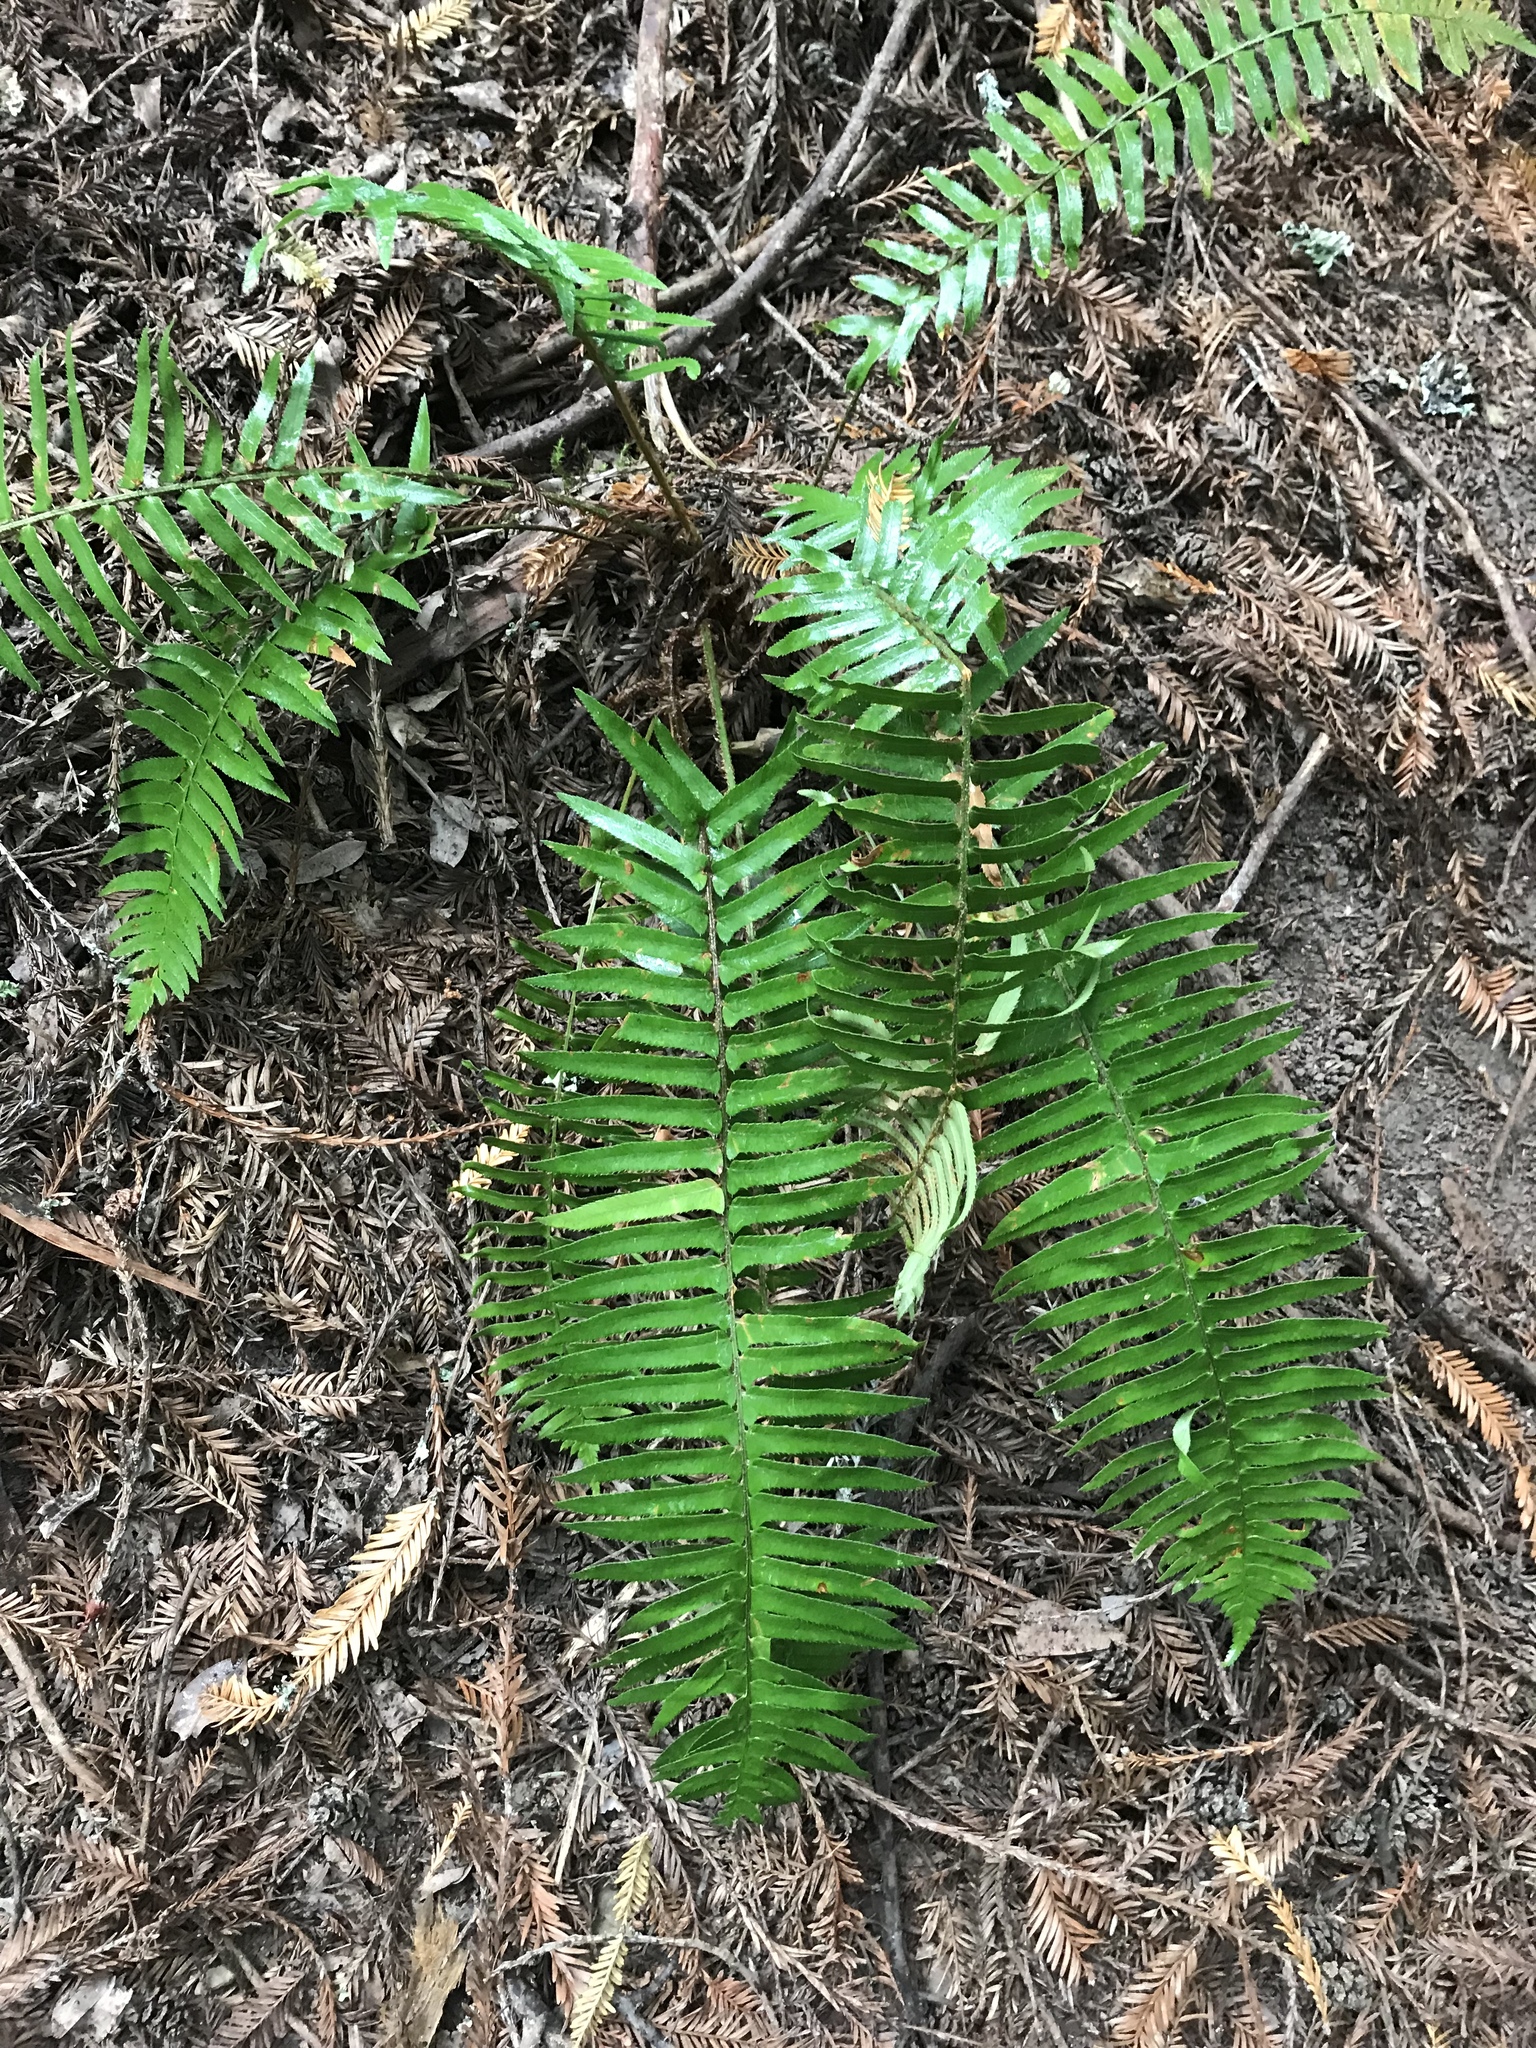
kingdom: Plantae
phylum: Tracheophyta
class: Polypodiopsida
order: Polypodiales
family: Dryopteridaceae
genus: Polystichum
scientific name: Polystichum munitum
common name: Western sword-fern
